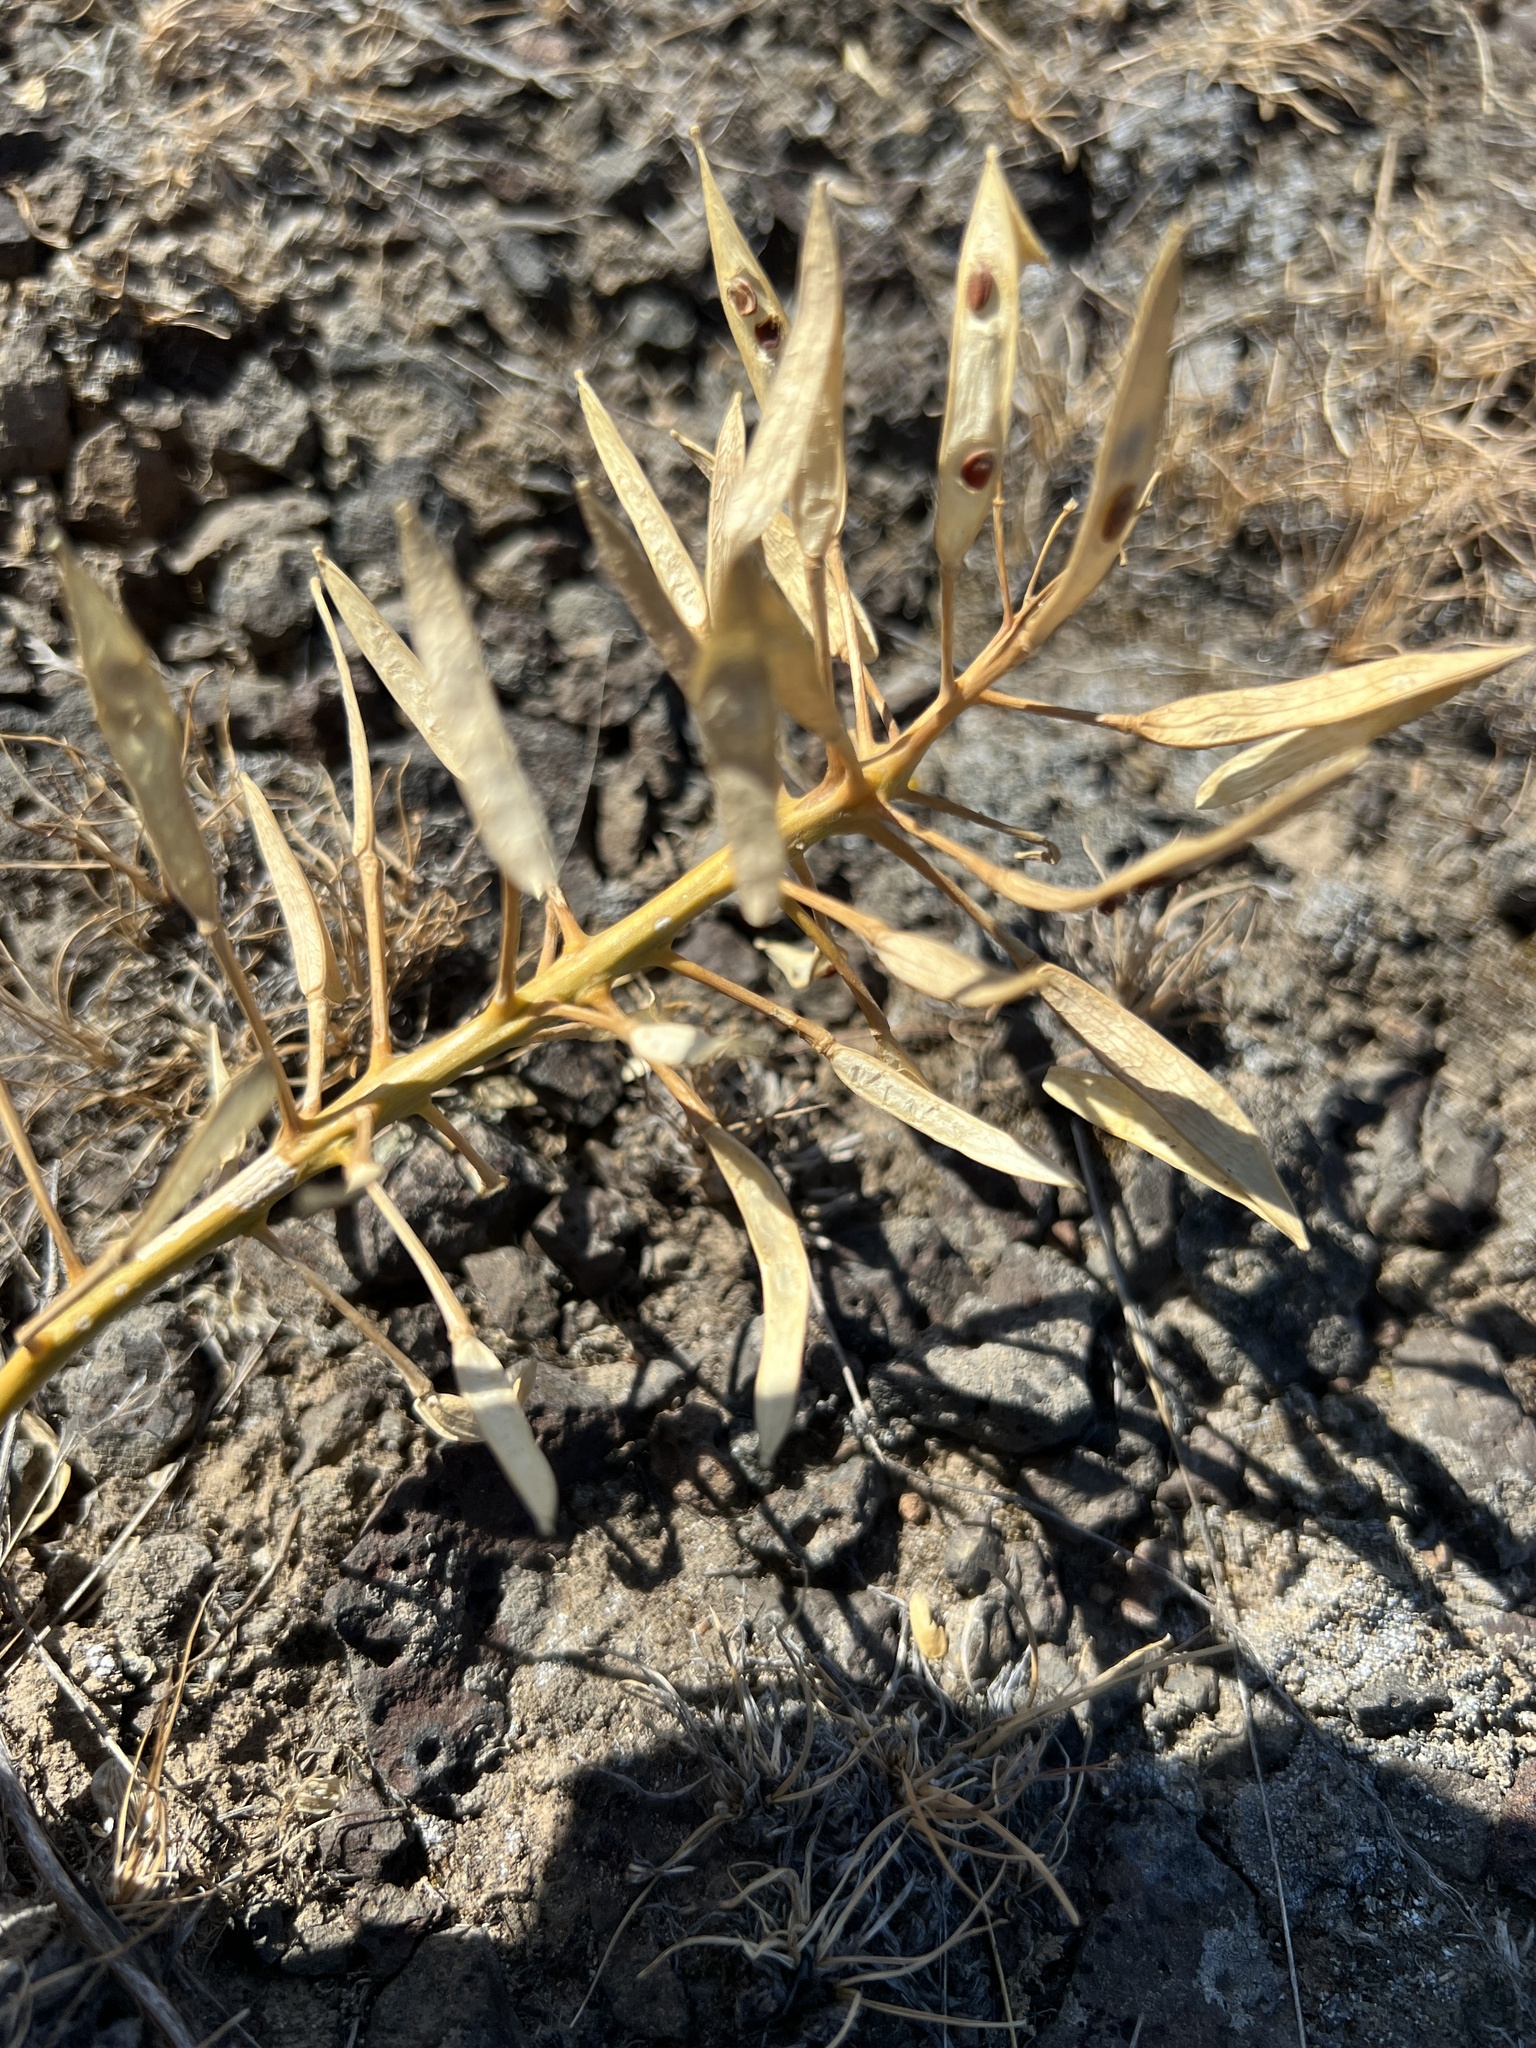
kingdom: Plantae
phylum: Tracheophyta
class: Magnoliopsida
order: Brassicales
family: Brassicaceae
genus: Phoenicaulis
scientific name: Phoenicaulis cheiranthoides
